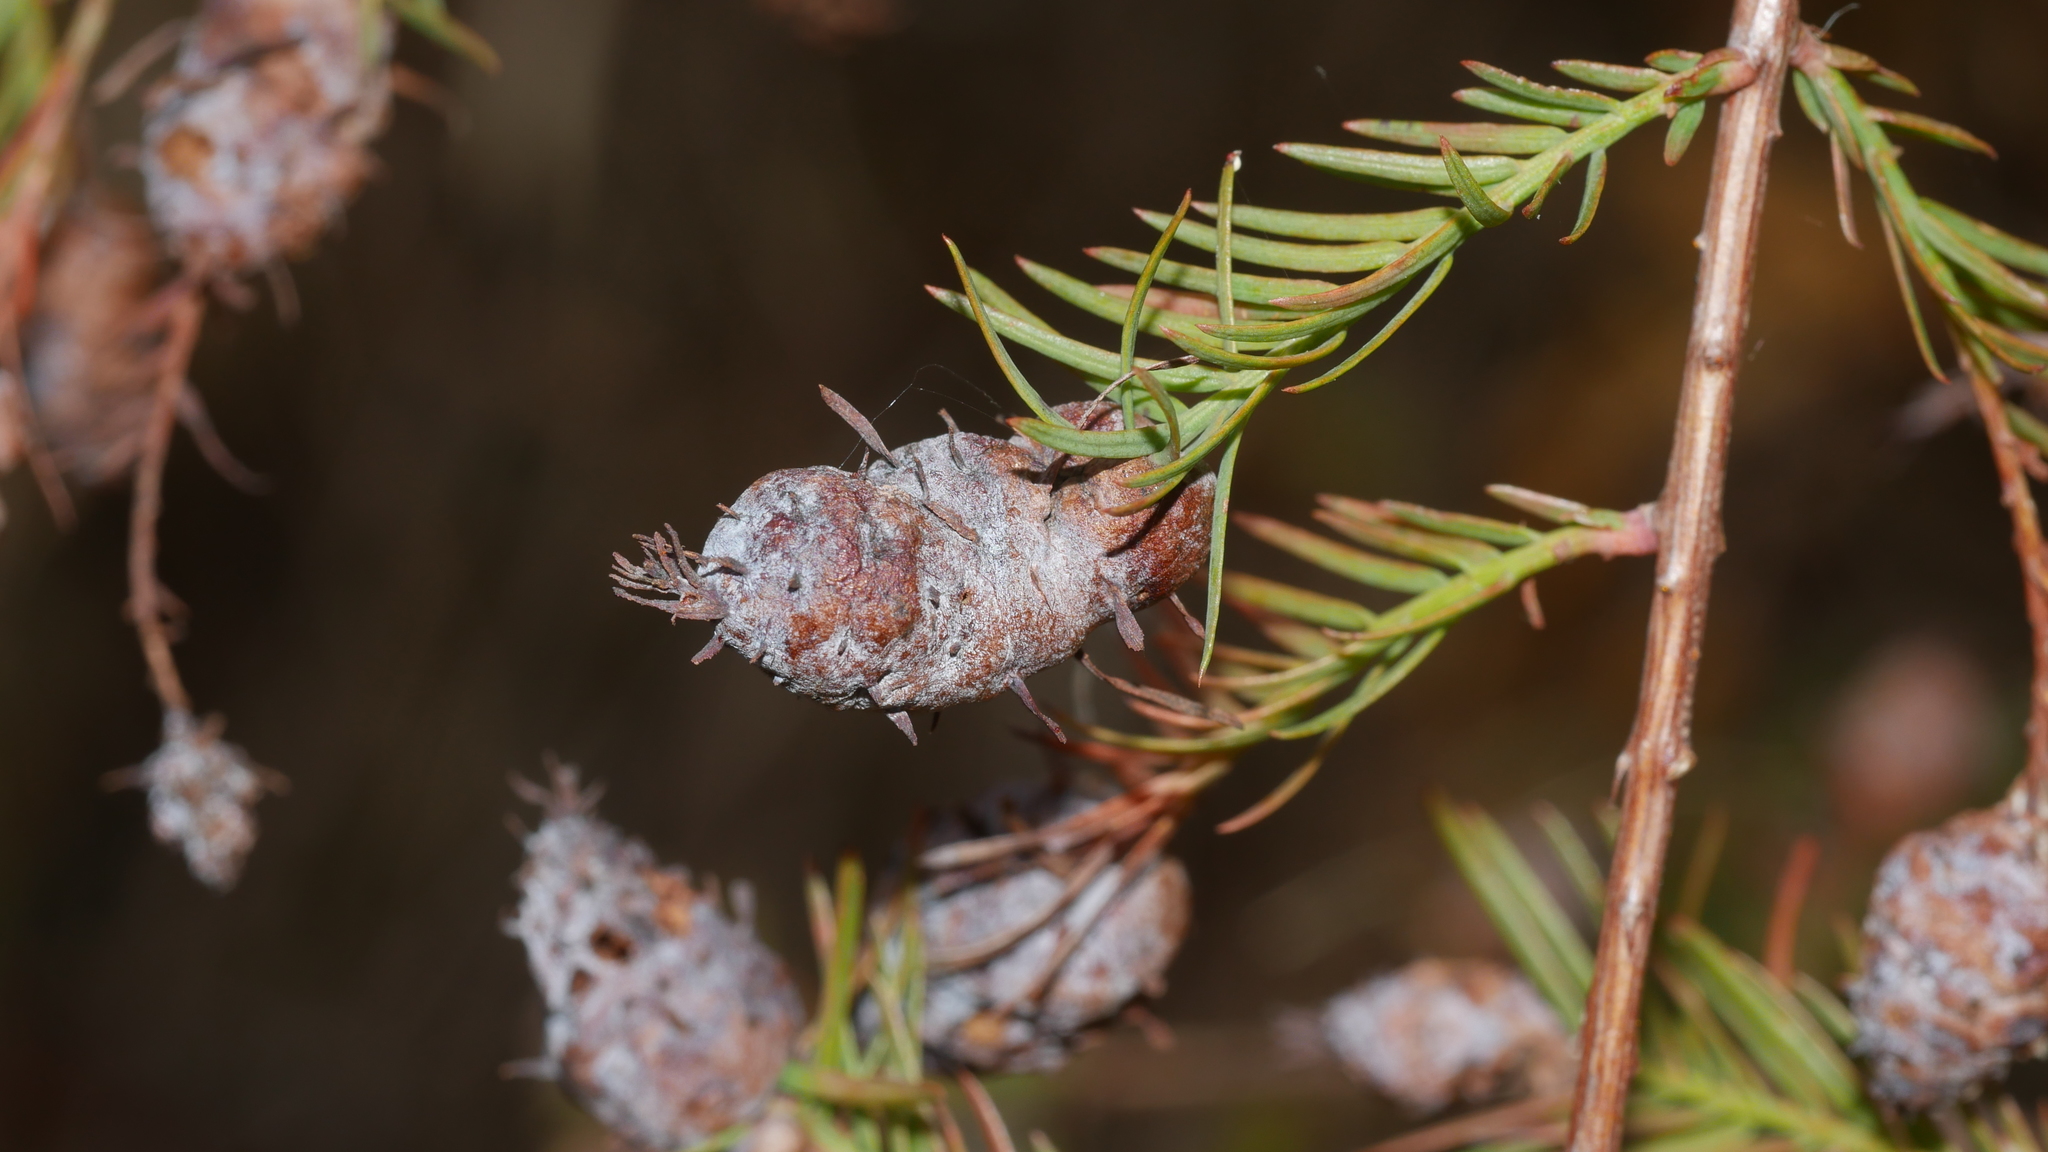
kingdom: Animalia
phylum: Arthropoda
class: Insecta
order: Diptera
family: Cecidomyiidae
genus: Taxodiomyia
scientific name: Taxodiomyia cupressiananassa
